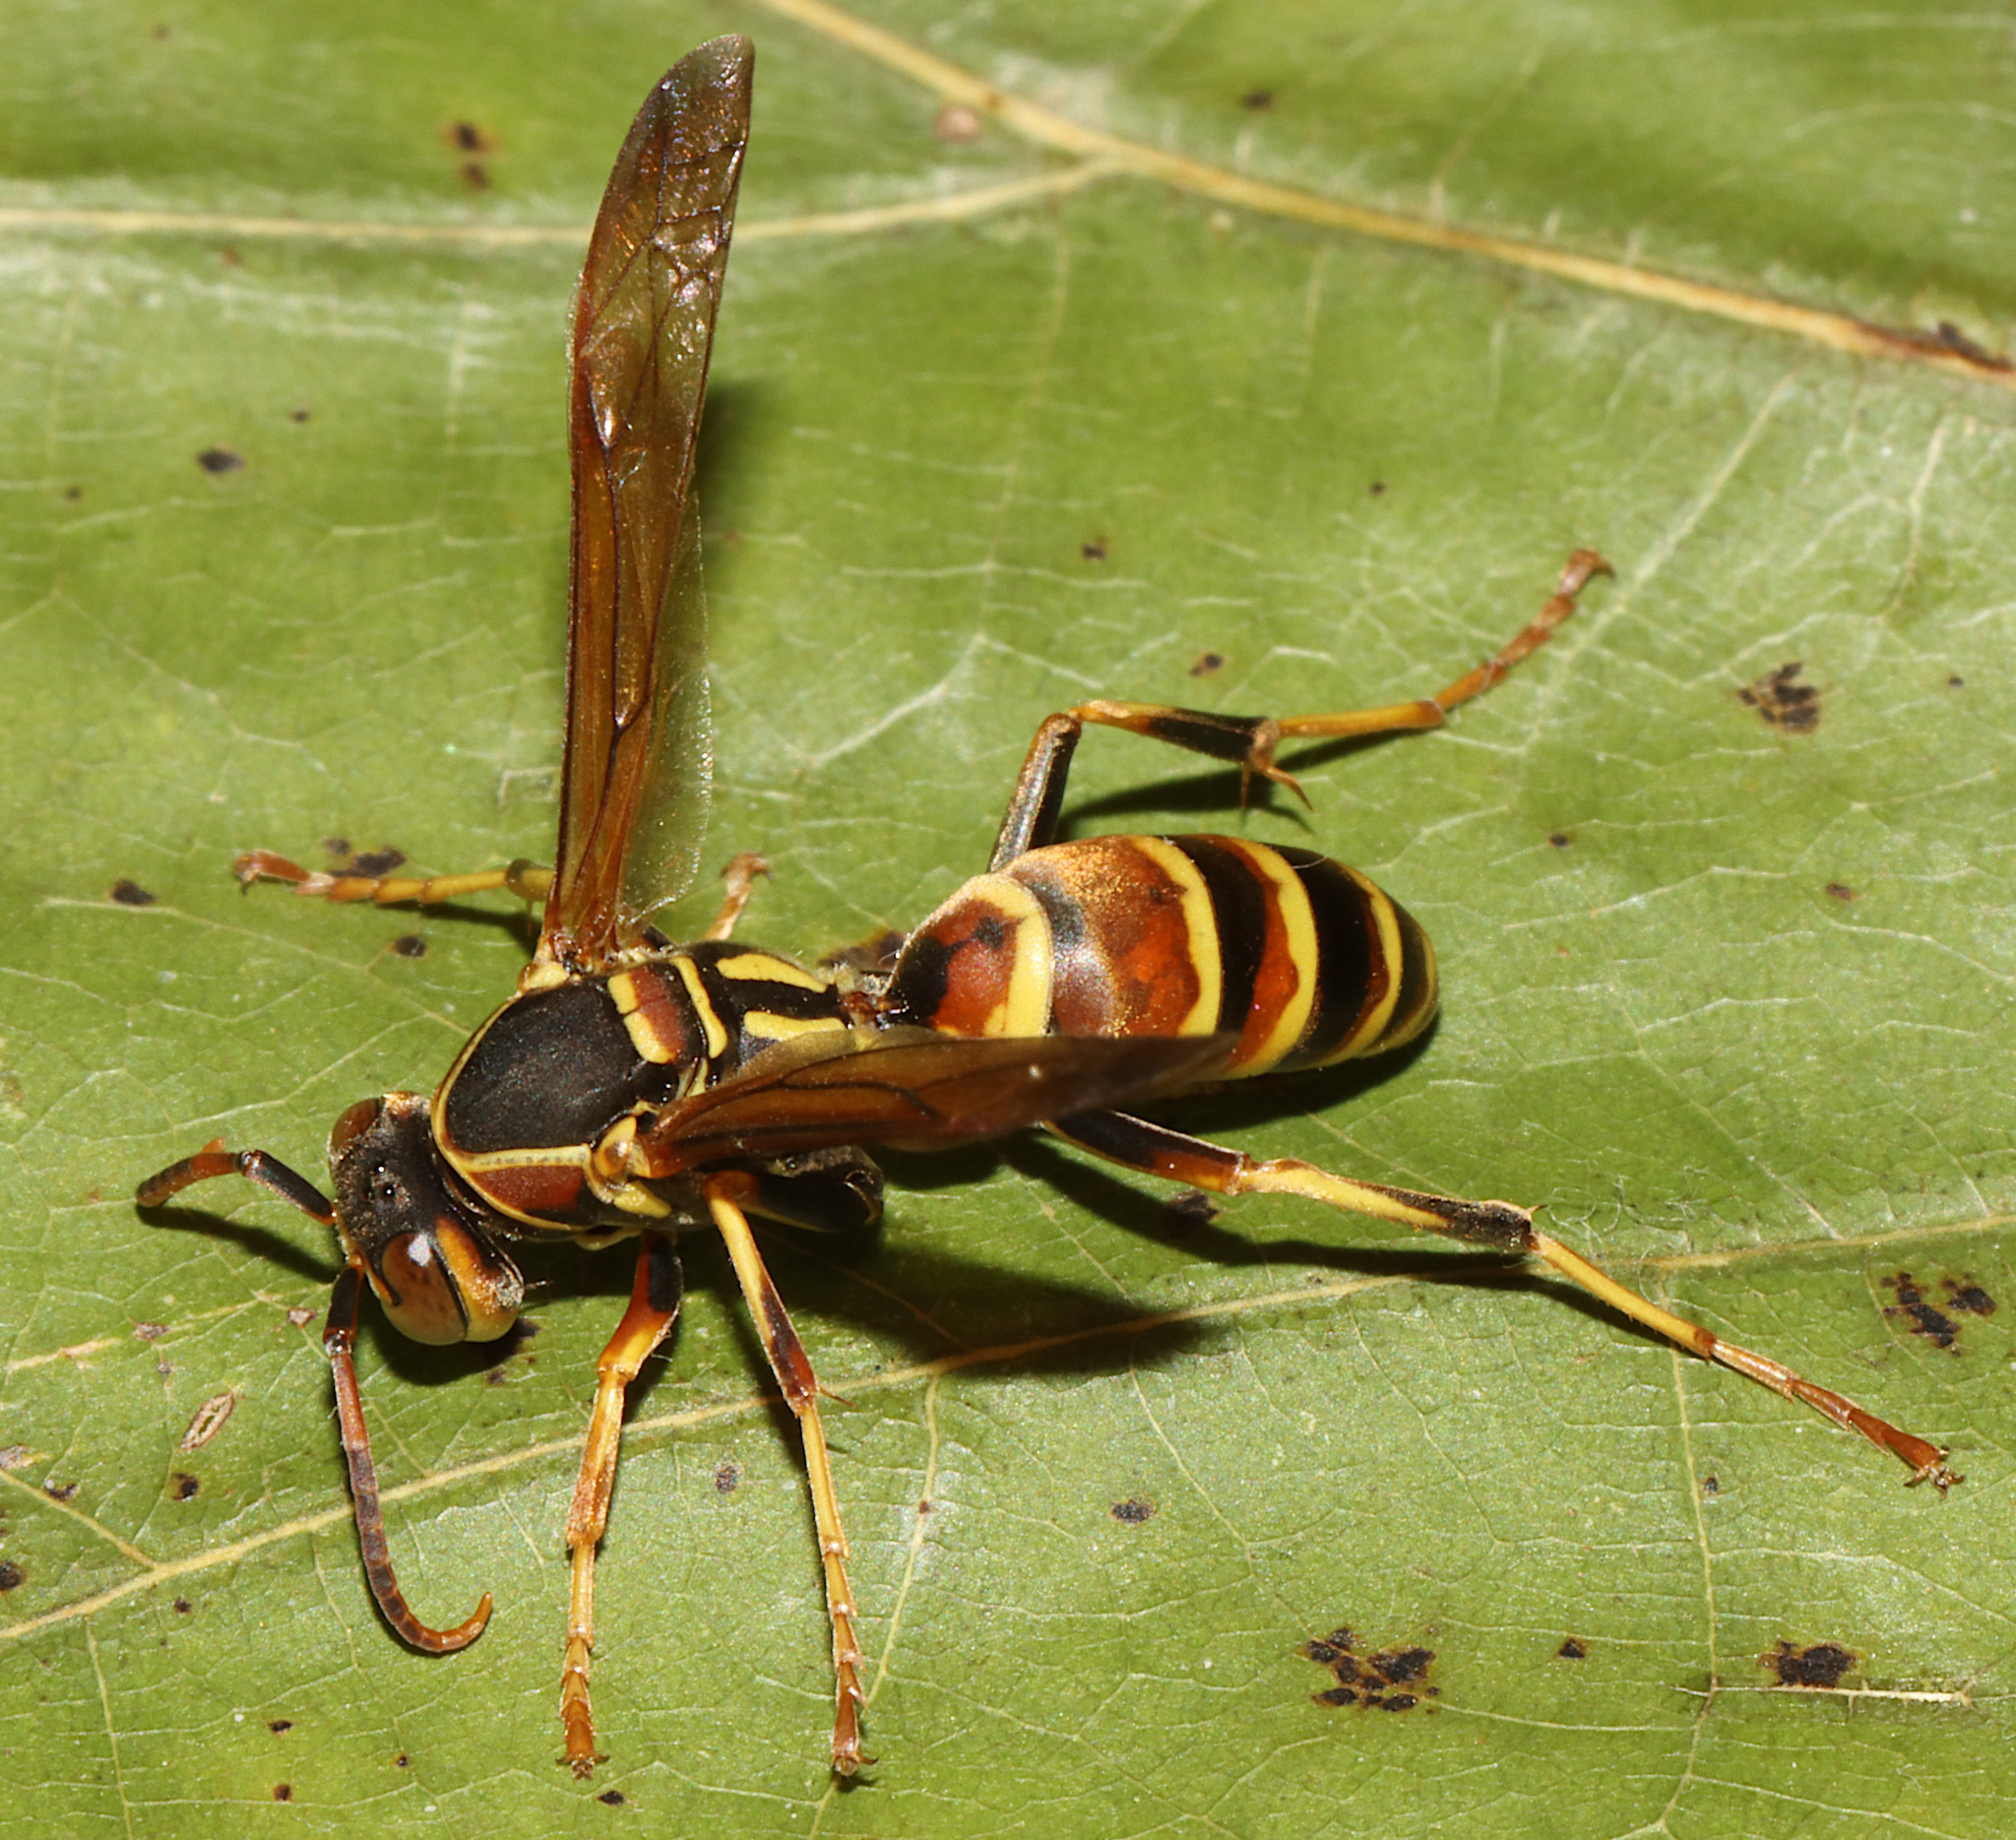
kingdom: Animalia
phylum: Arthropoda
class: Insecta
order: Hymenoptera
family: Eumenidae
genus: Polistes
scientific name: Polistes dorsalis
